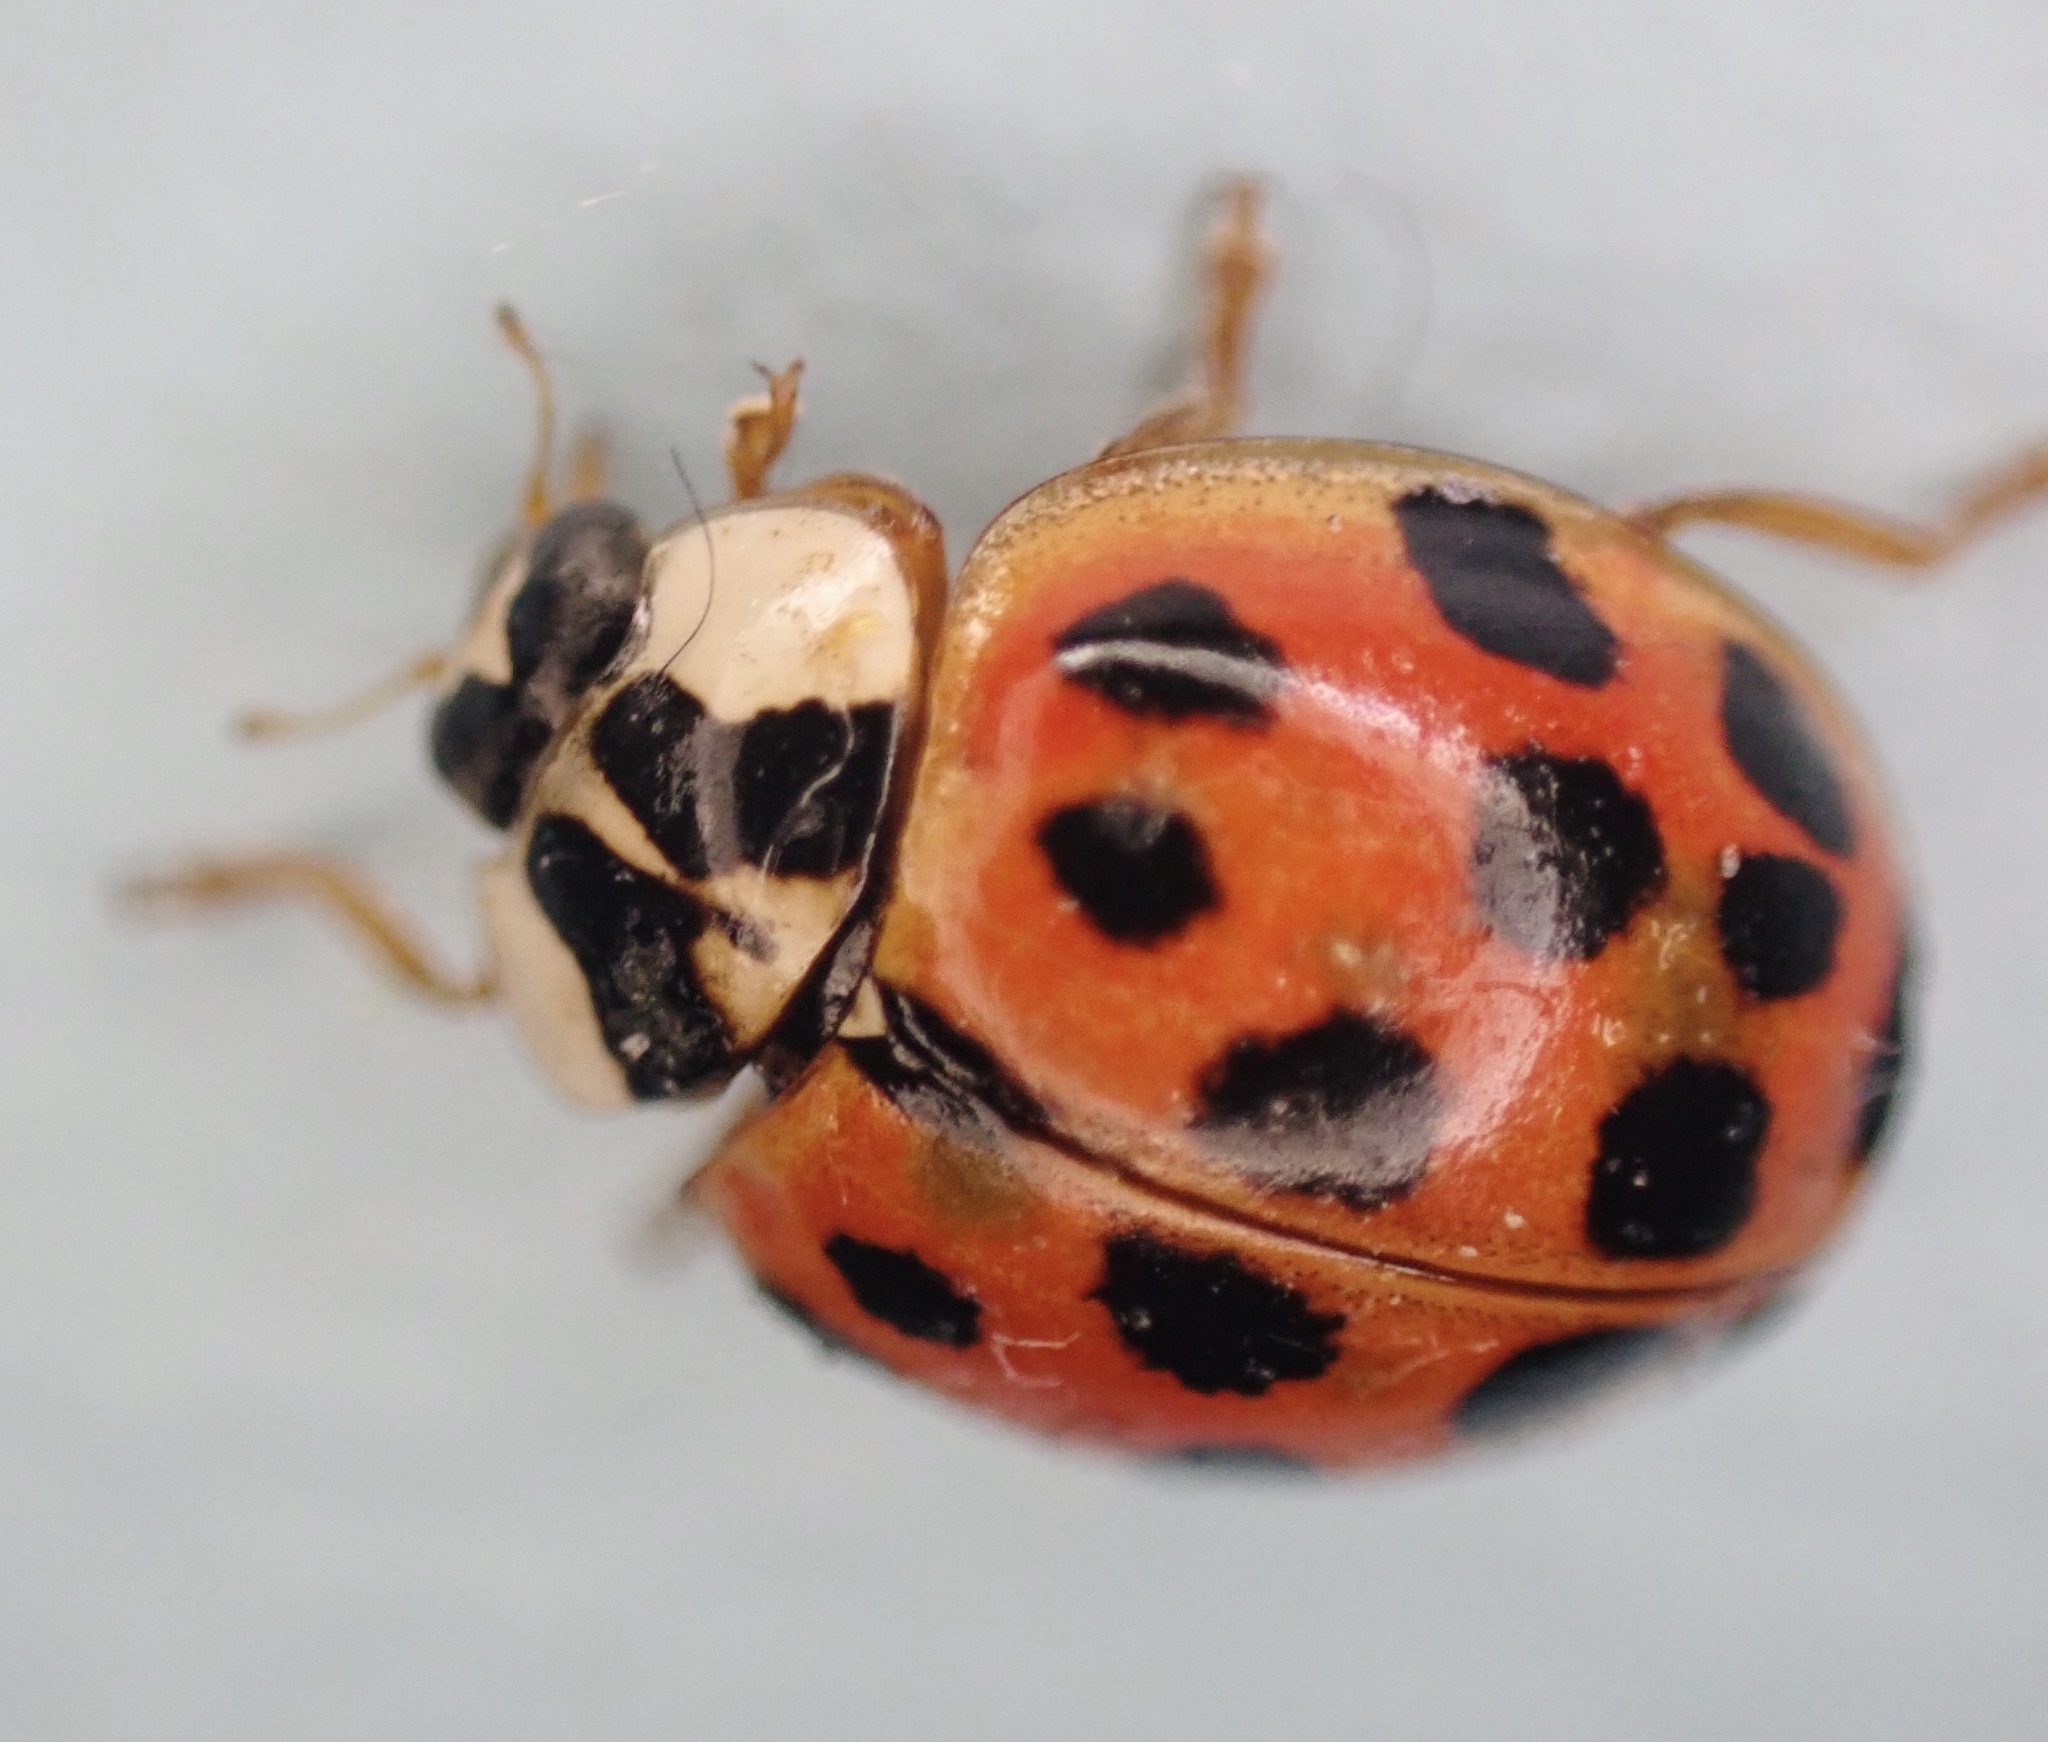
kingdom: Animalia
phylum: Arthropoda
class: Insecta
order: Coleoptera
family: Coccinellidae
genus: Harmonia
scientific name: Harmonia axyridis
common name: Harlequin ladybird
